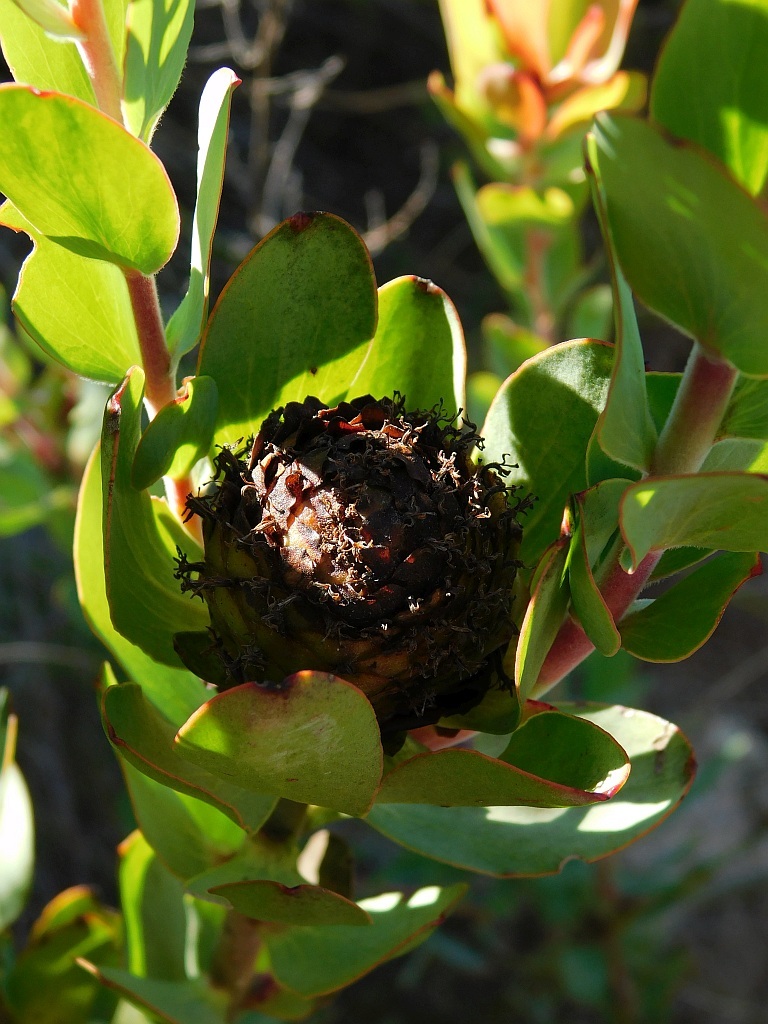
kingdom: Plantae
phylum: Tracheophyta
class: Magnoliopsida
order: Proteales
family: Proteaceae
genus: Leucadendron
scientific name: Leucadendron elimense
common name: Elim conebush
